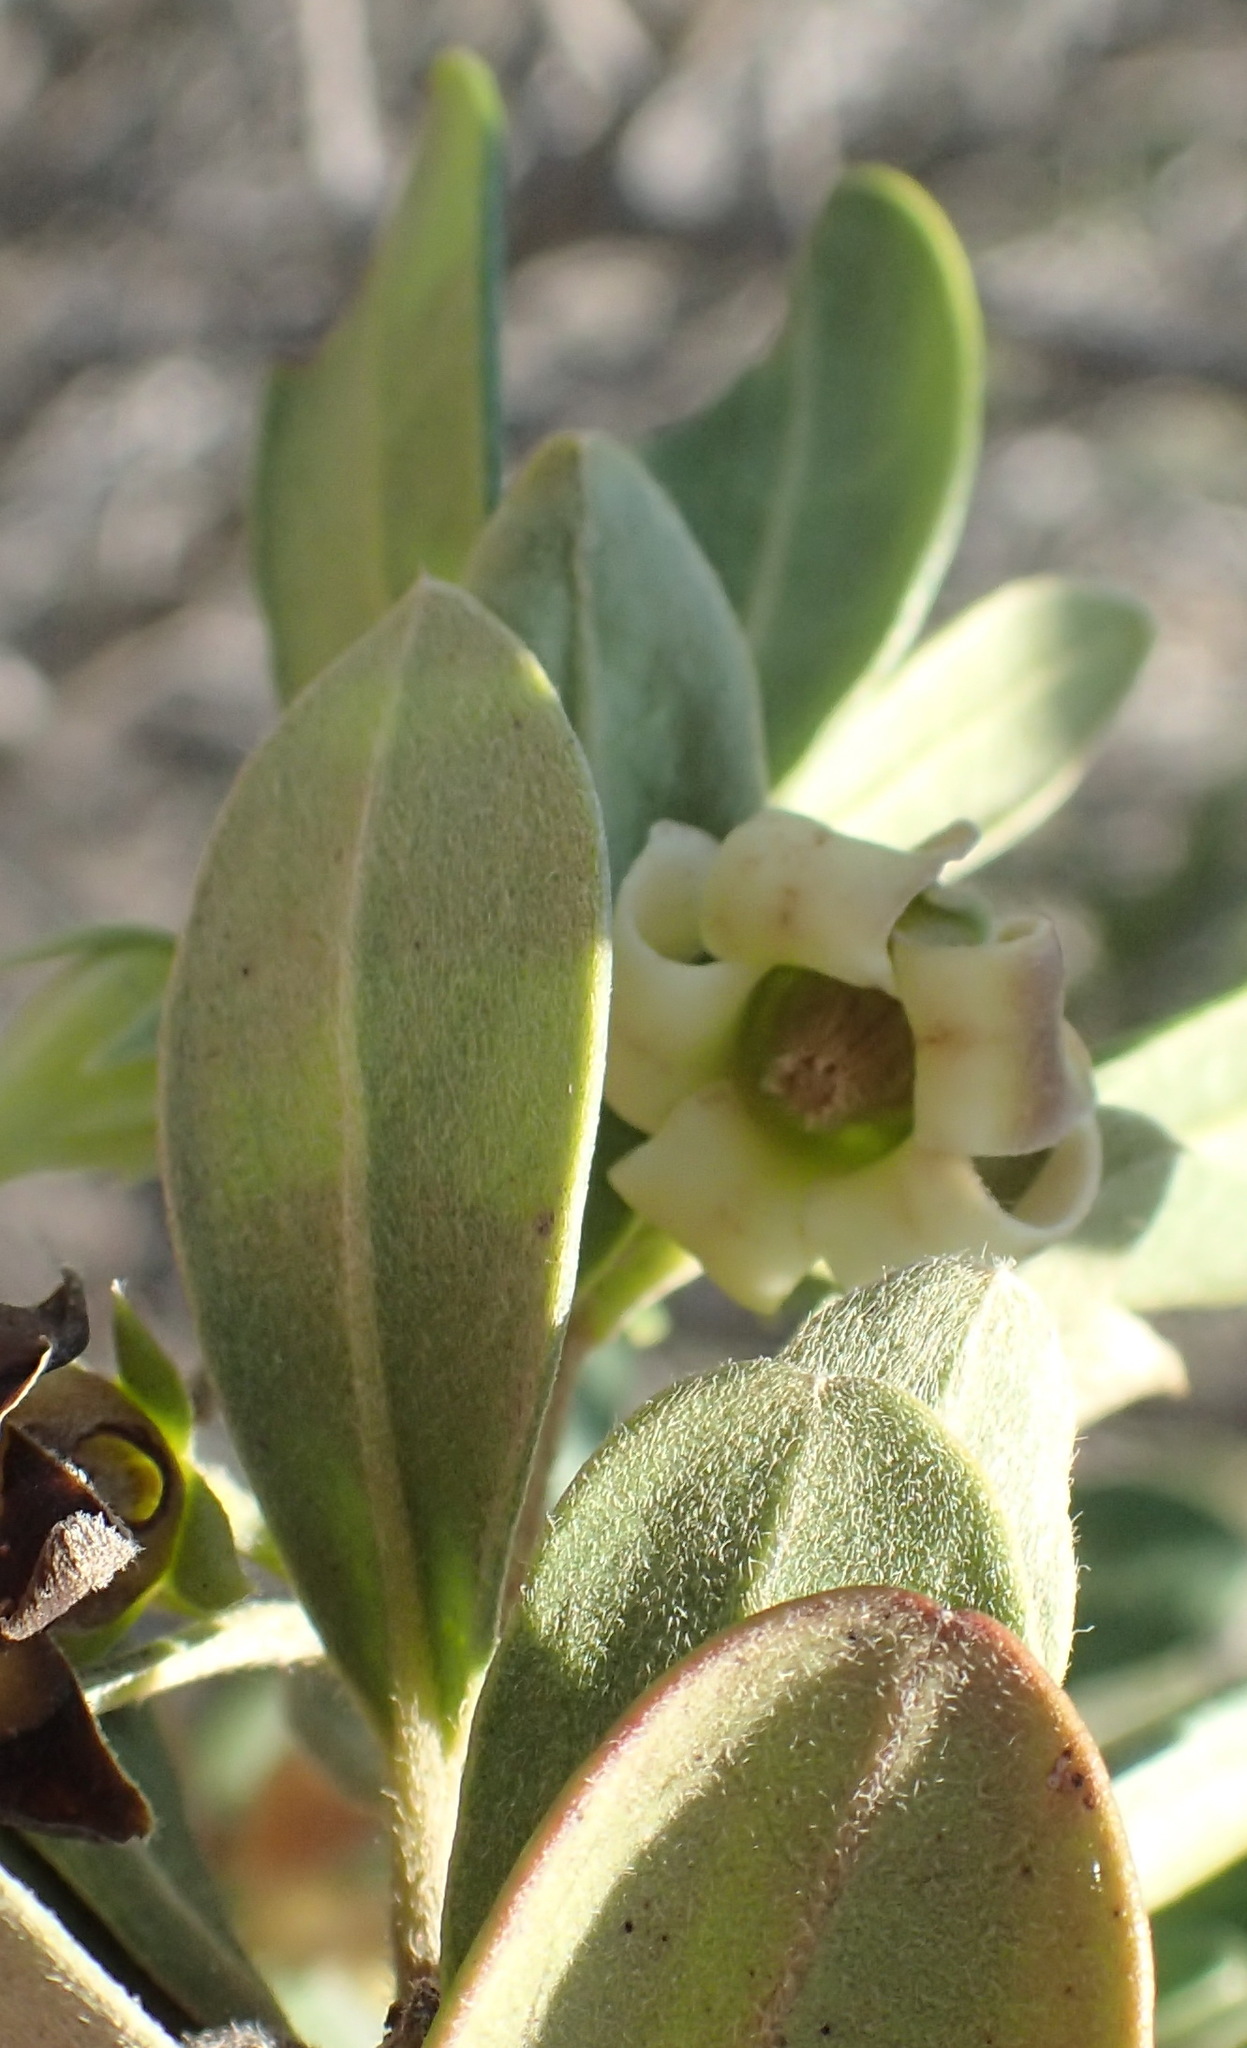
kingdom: Plantae
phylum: Tracheophyta
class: Magnoliopsida
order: Ericales
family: Ebenaceae
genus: Diospyros
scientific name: Diospyros dichrophylla
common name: Common star-apple
